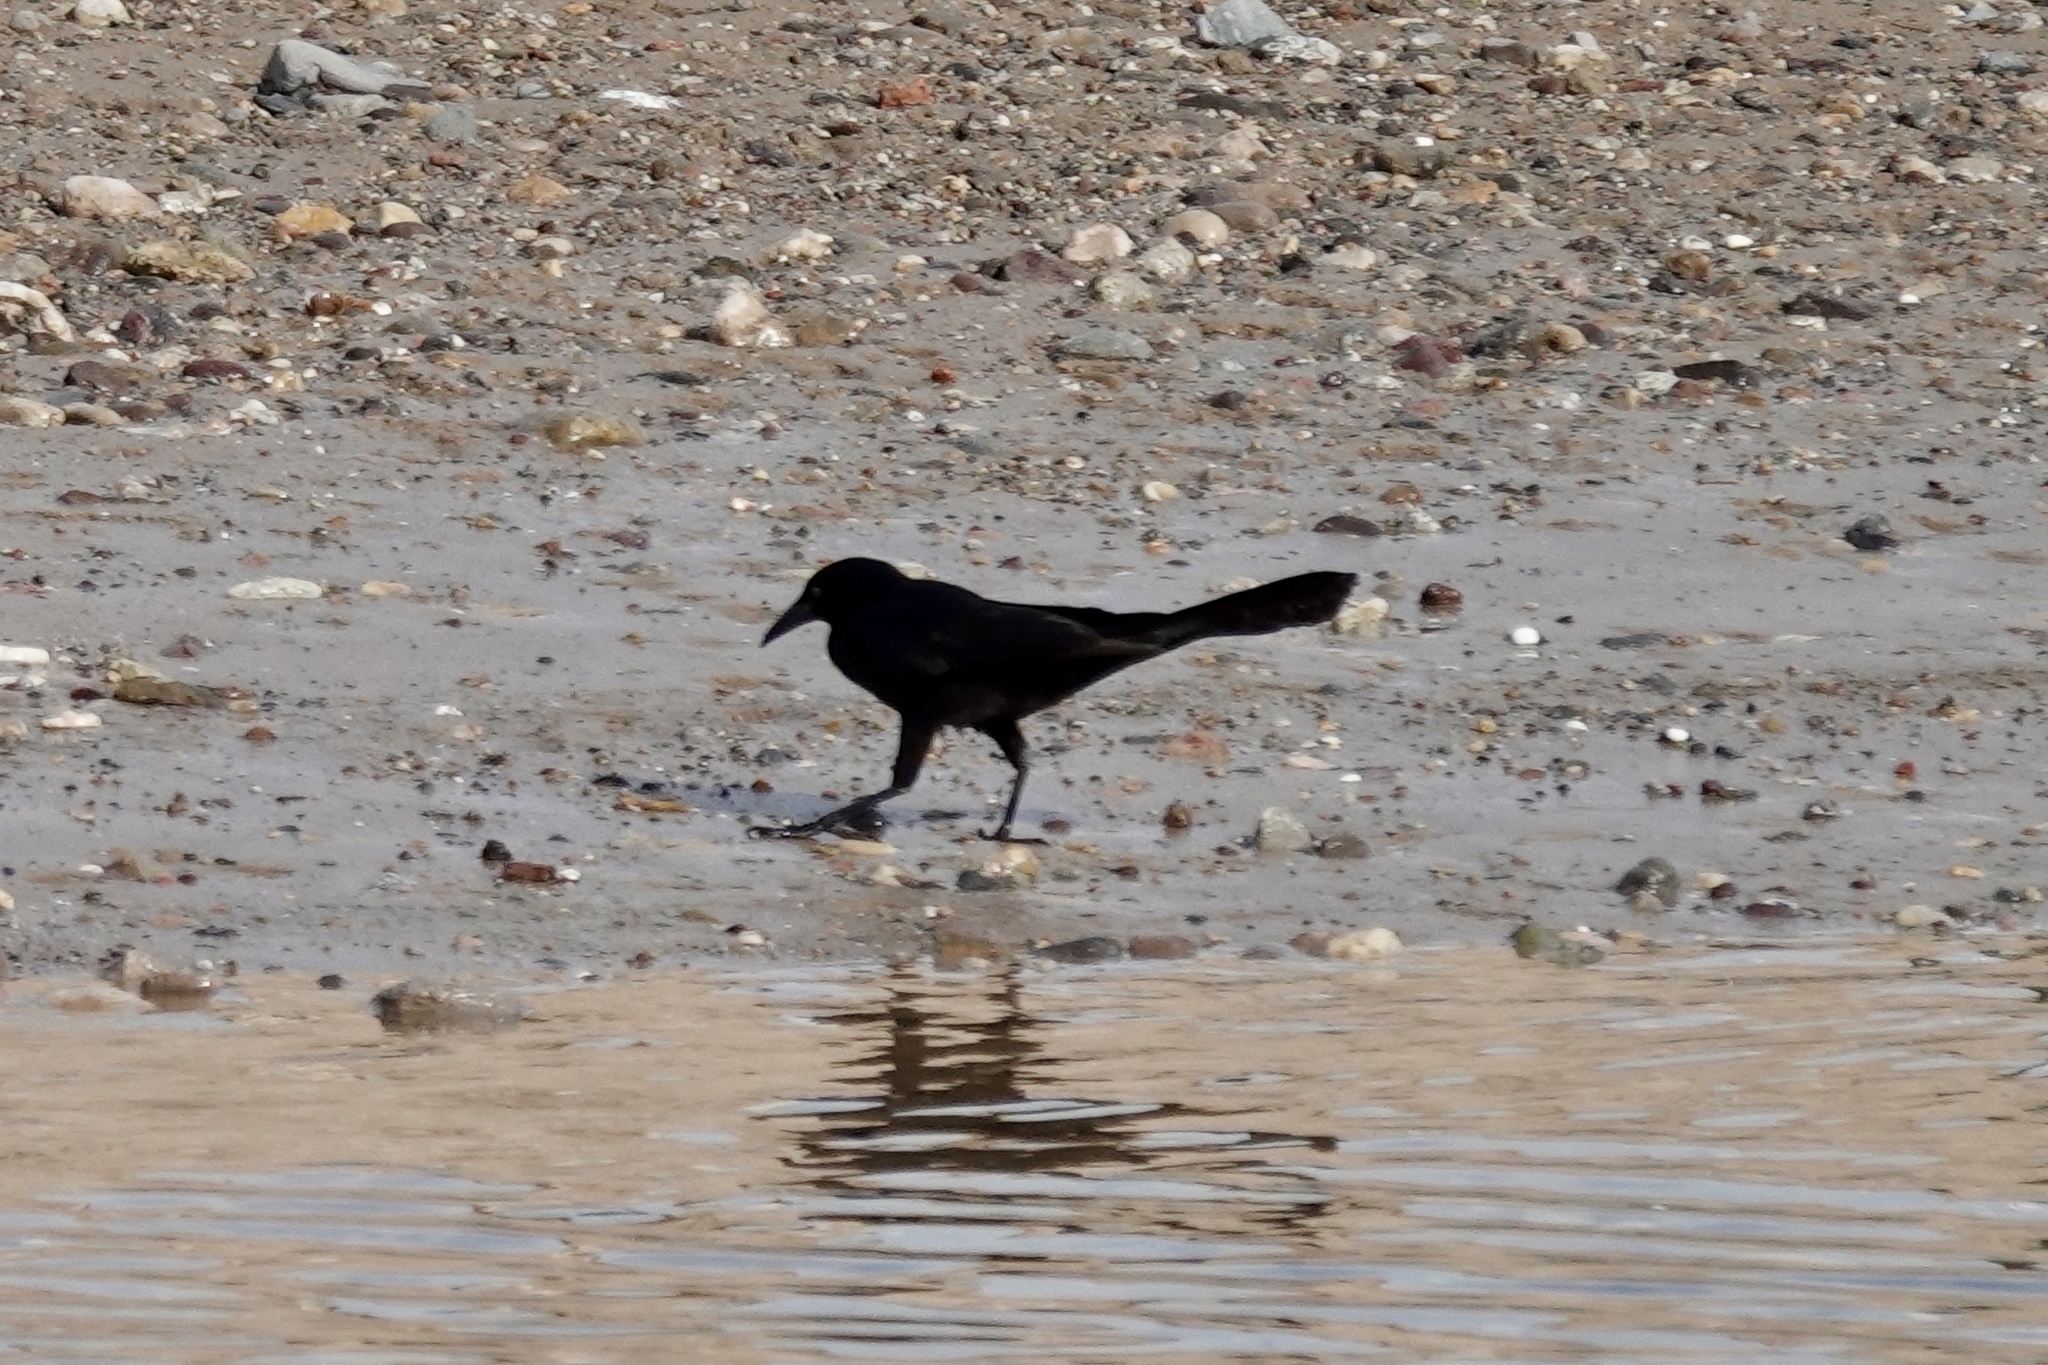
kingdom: Animalia
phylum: Chordata
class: Aves
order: Passeriformes
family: Icteridae
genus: Quiscalus
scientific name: Quiscalus mexicanus
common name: Great-tailed grackle
